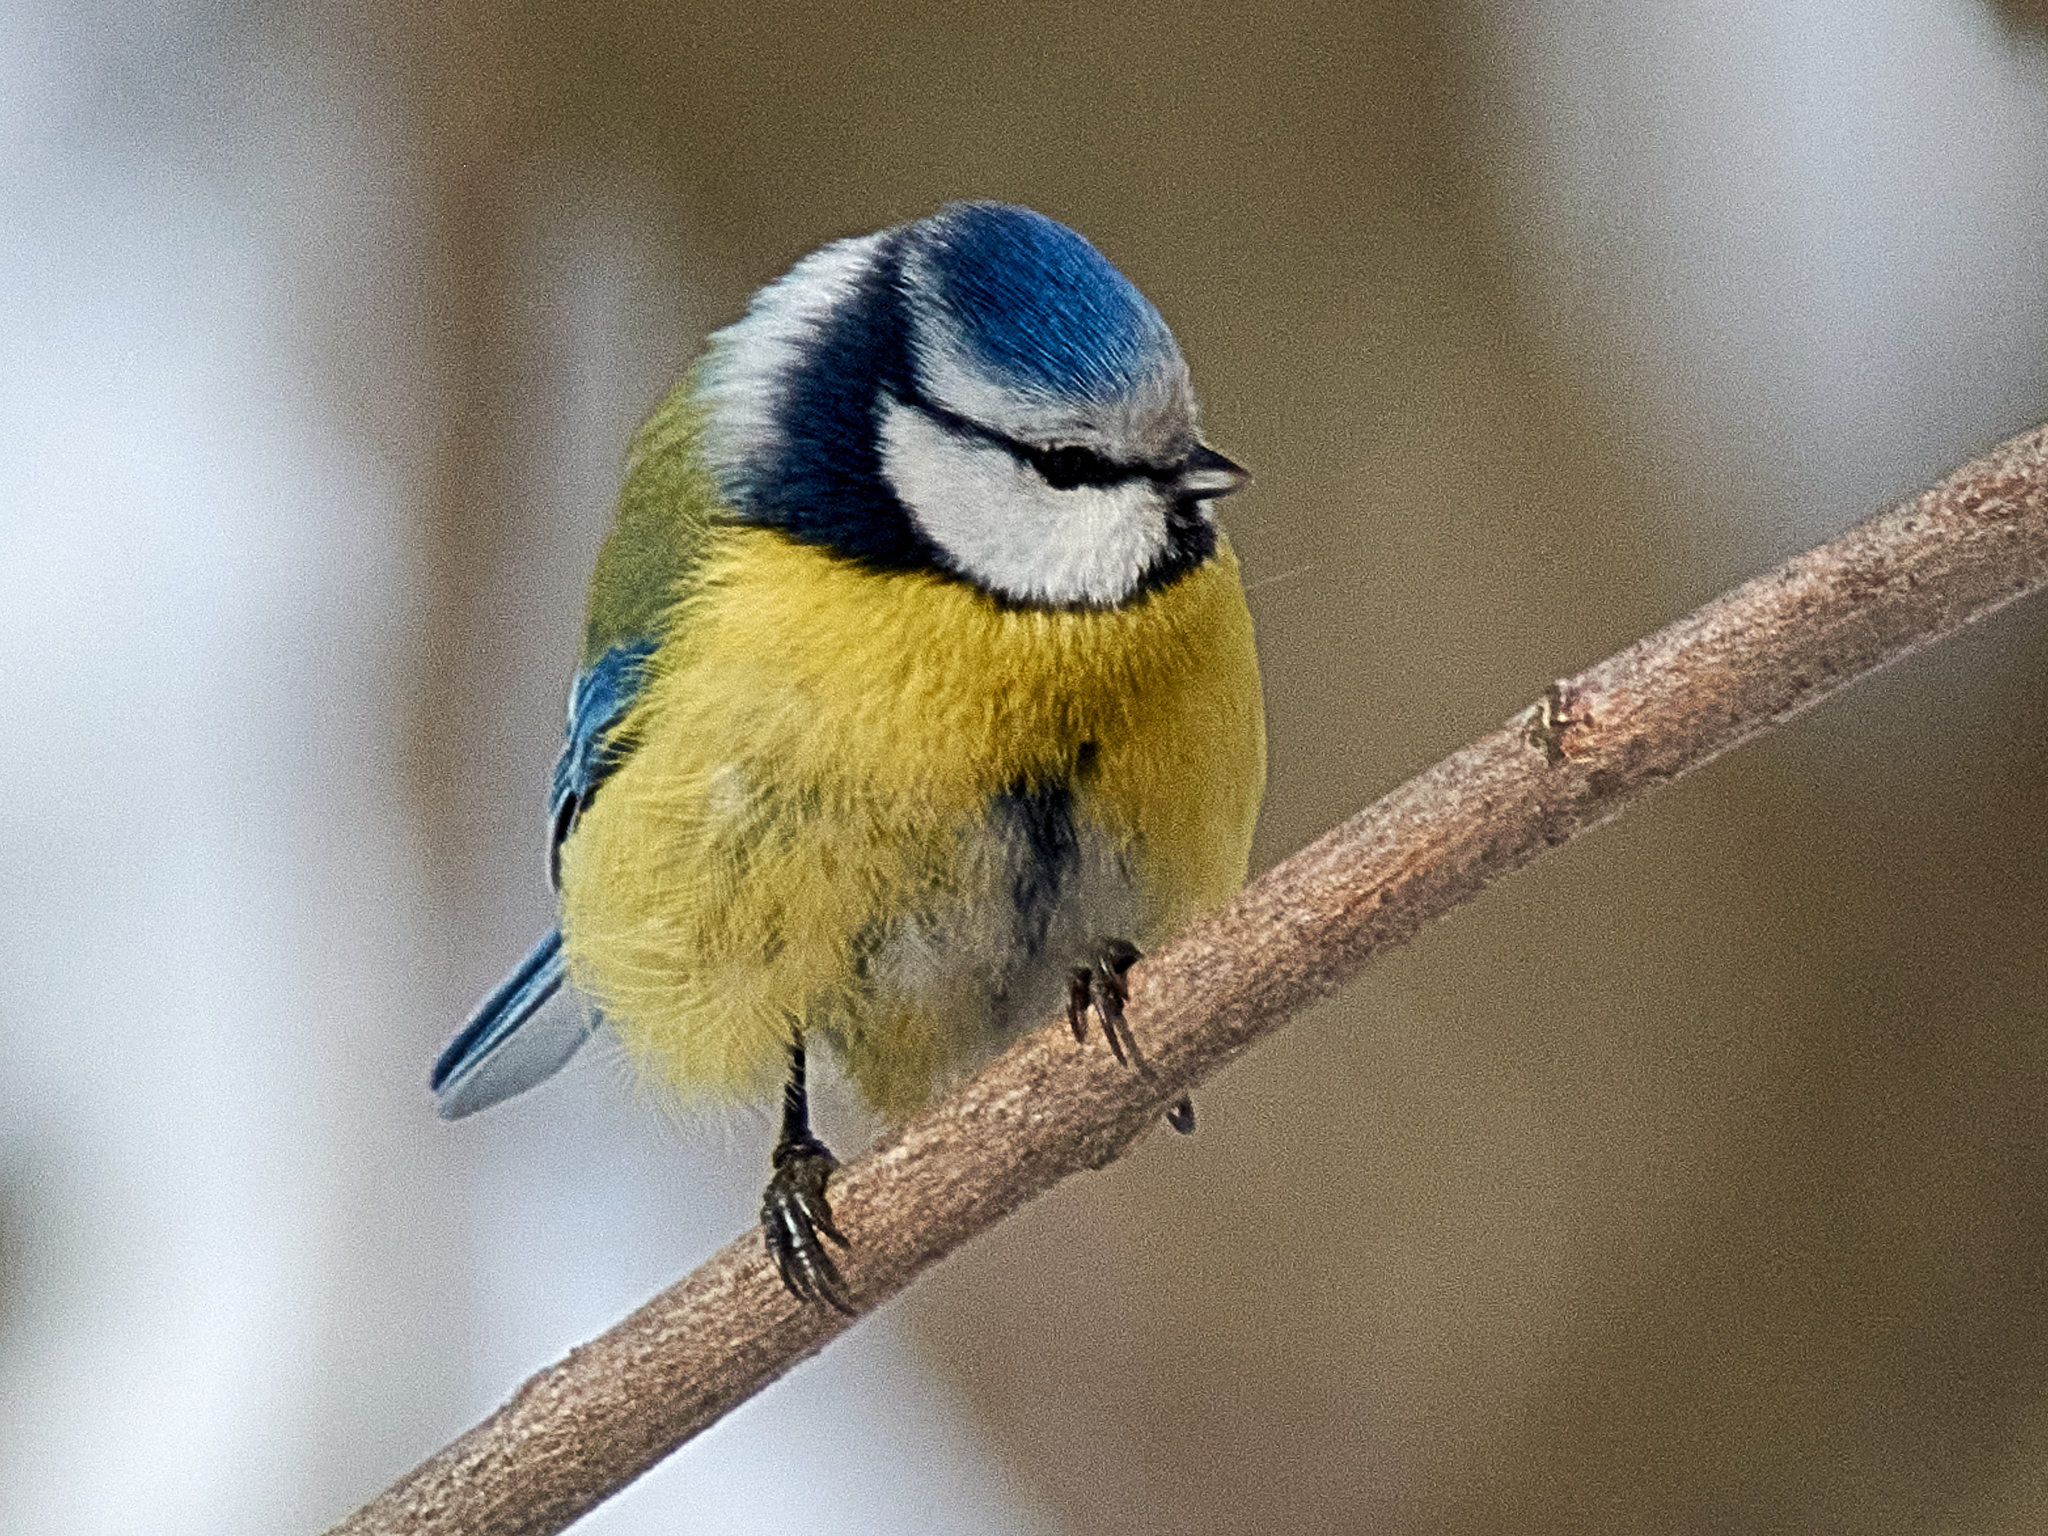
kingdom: Animalia
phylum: Chordata
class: Aves
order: Passeriformes
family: Paridae
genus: Cyanistes
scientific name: Cyanistes caeruleus
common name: Eurasian blue tit
